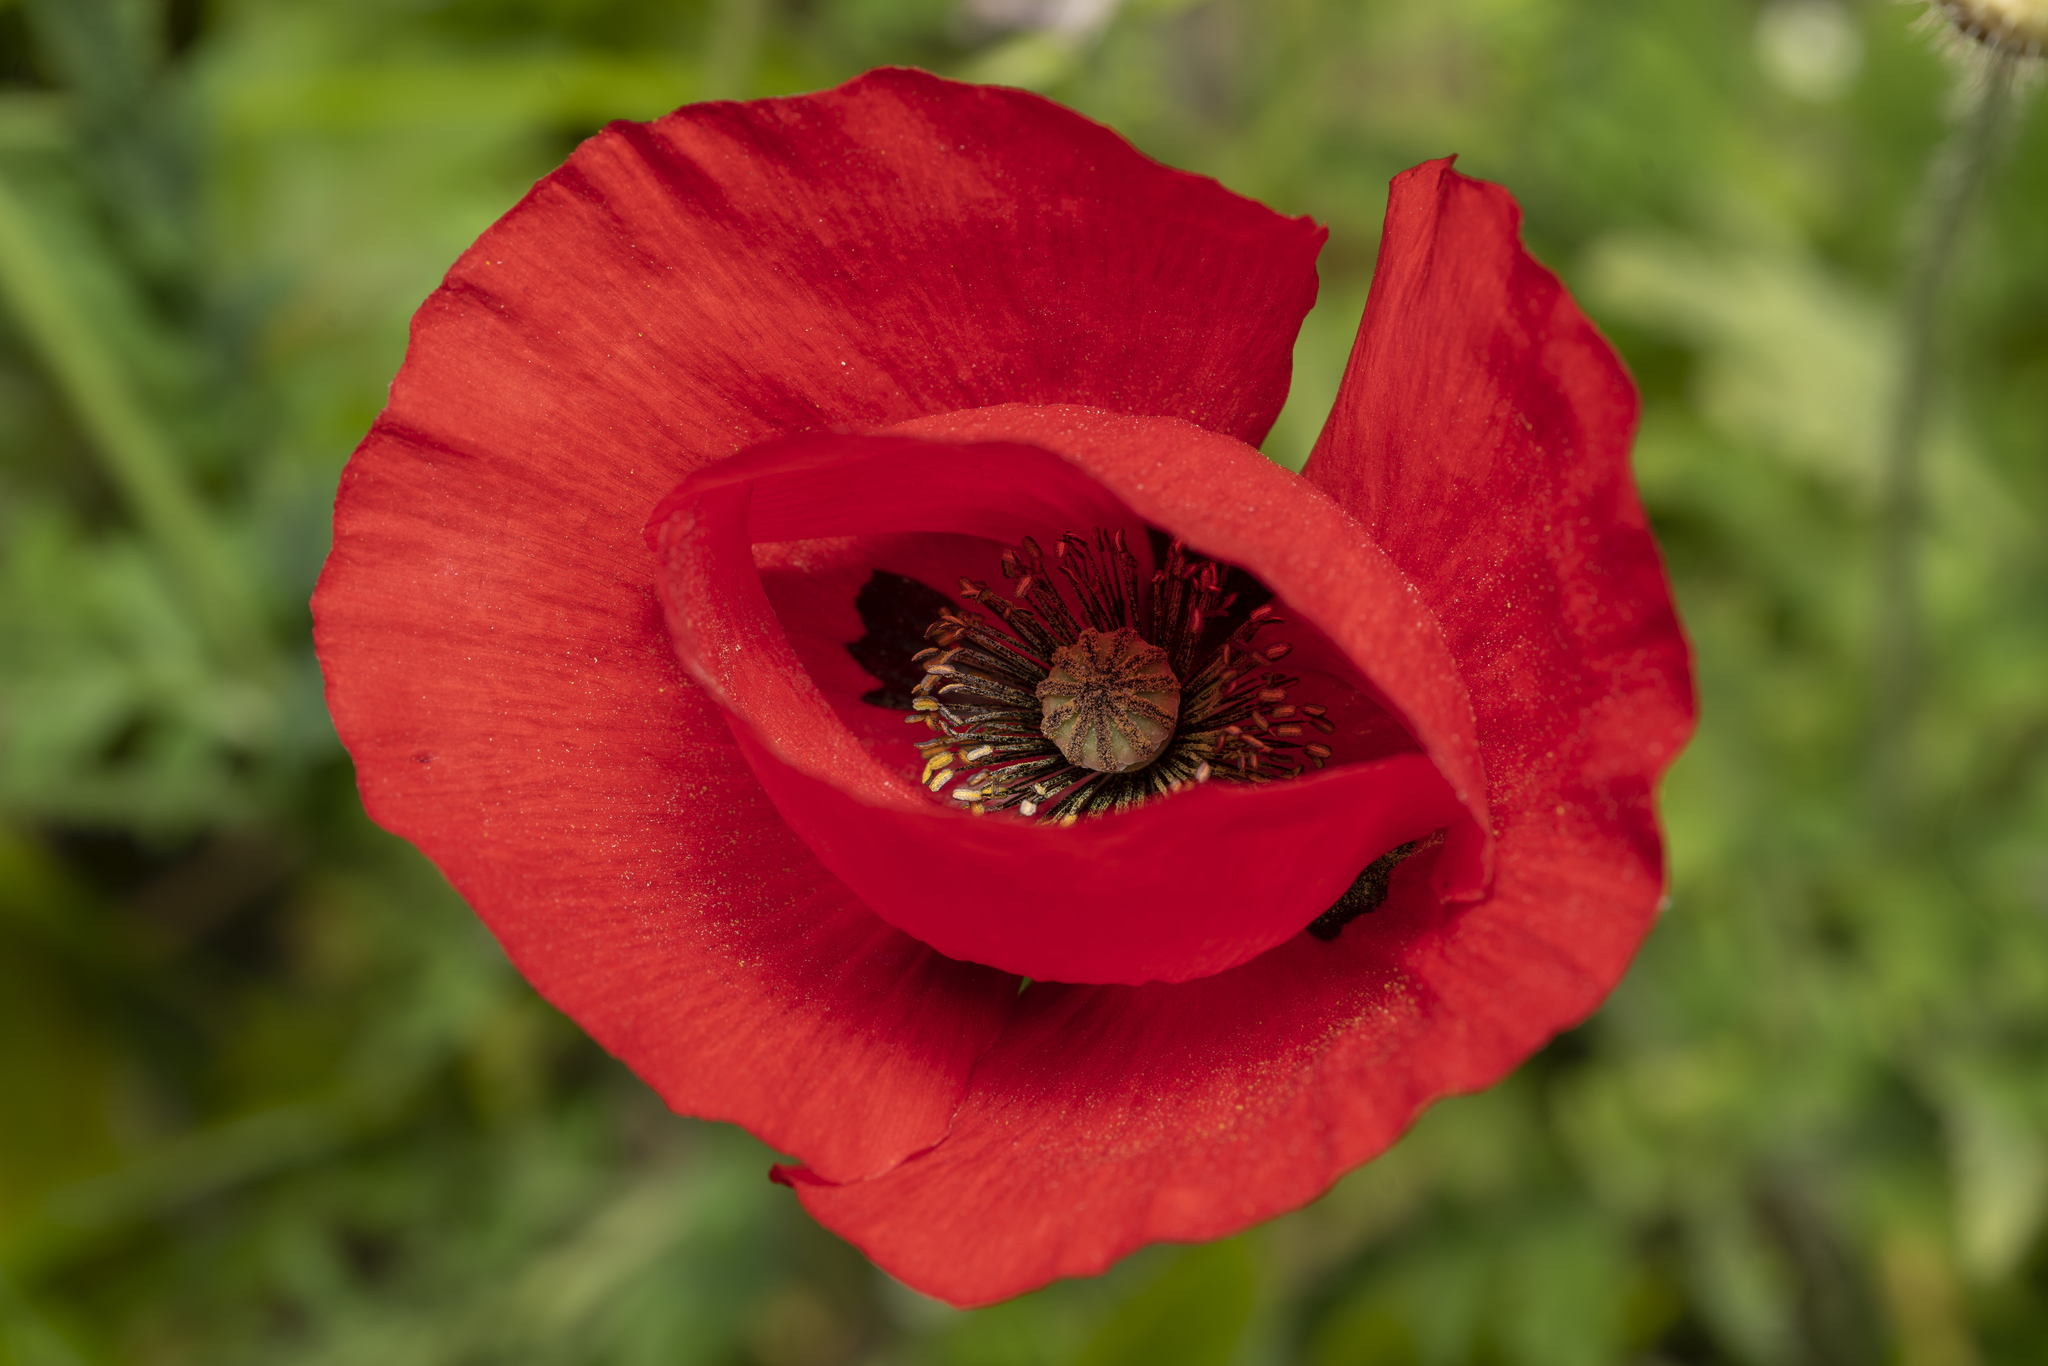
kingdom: Plantae
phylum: Tracheophyta
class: Magnoliopsida
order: Ranunculales
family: Papaveraceae
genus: Papaver
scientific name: Papaver rhoeas
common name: Corn poppy
